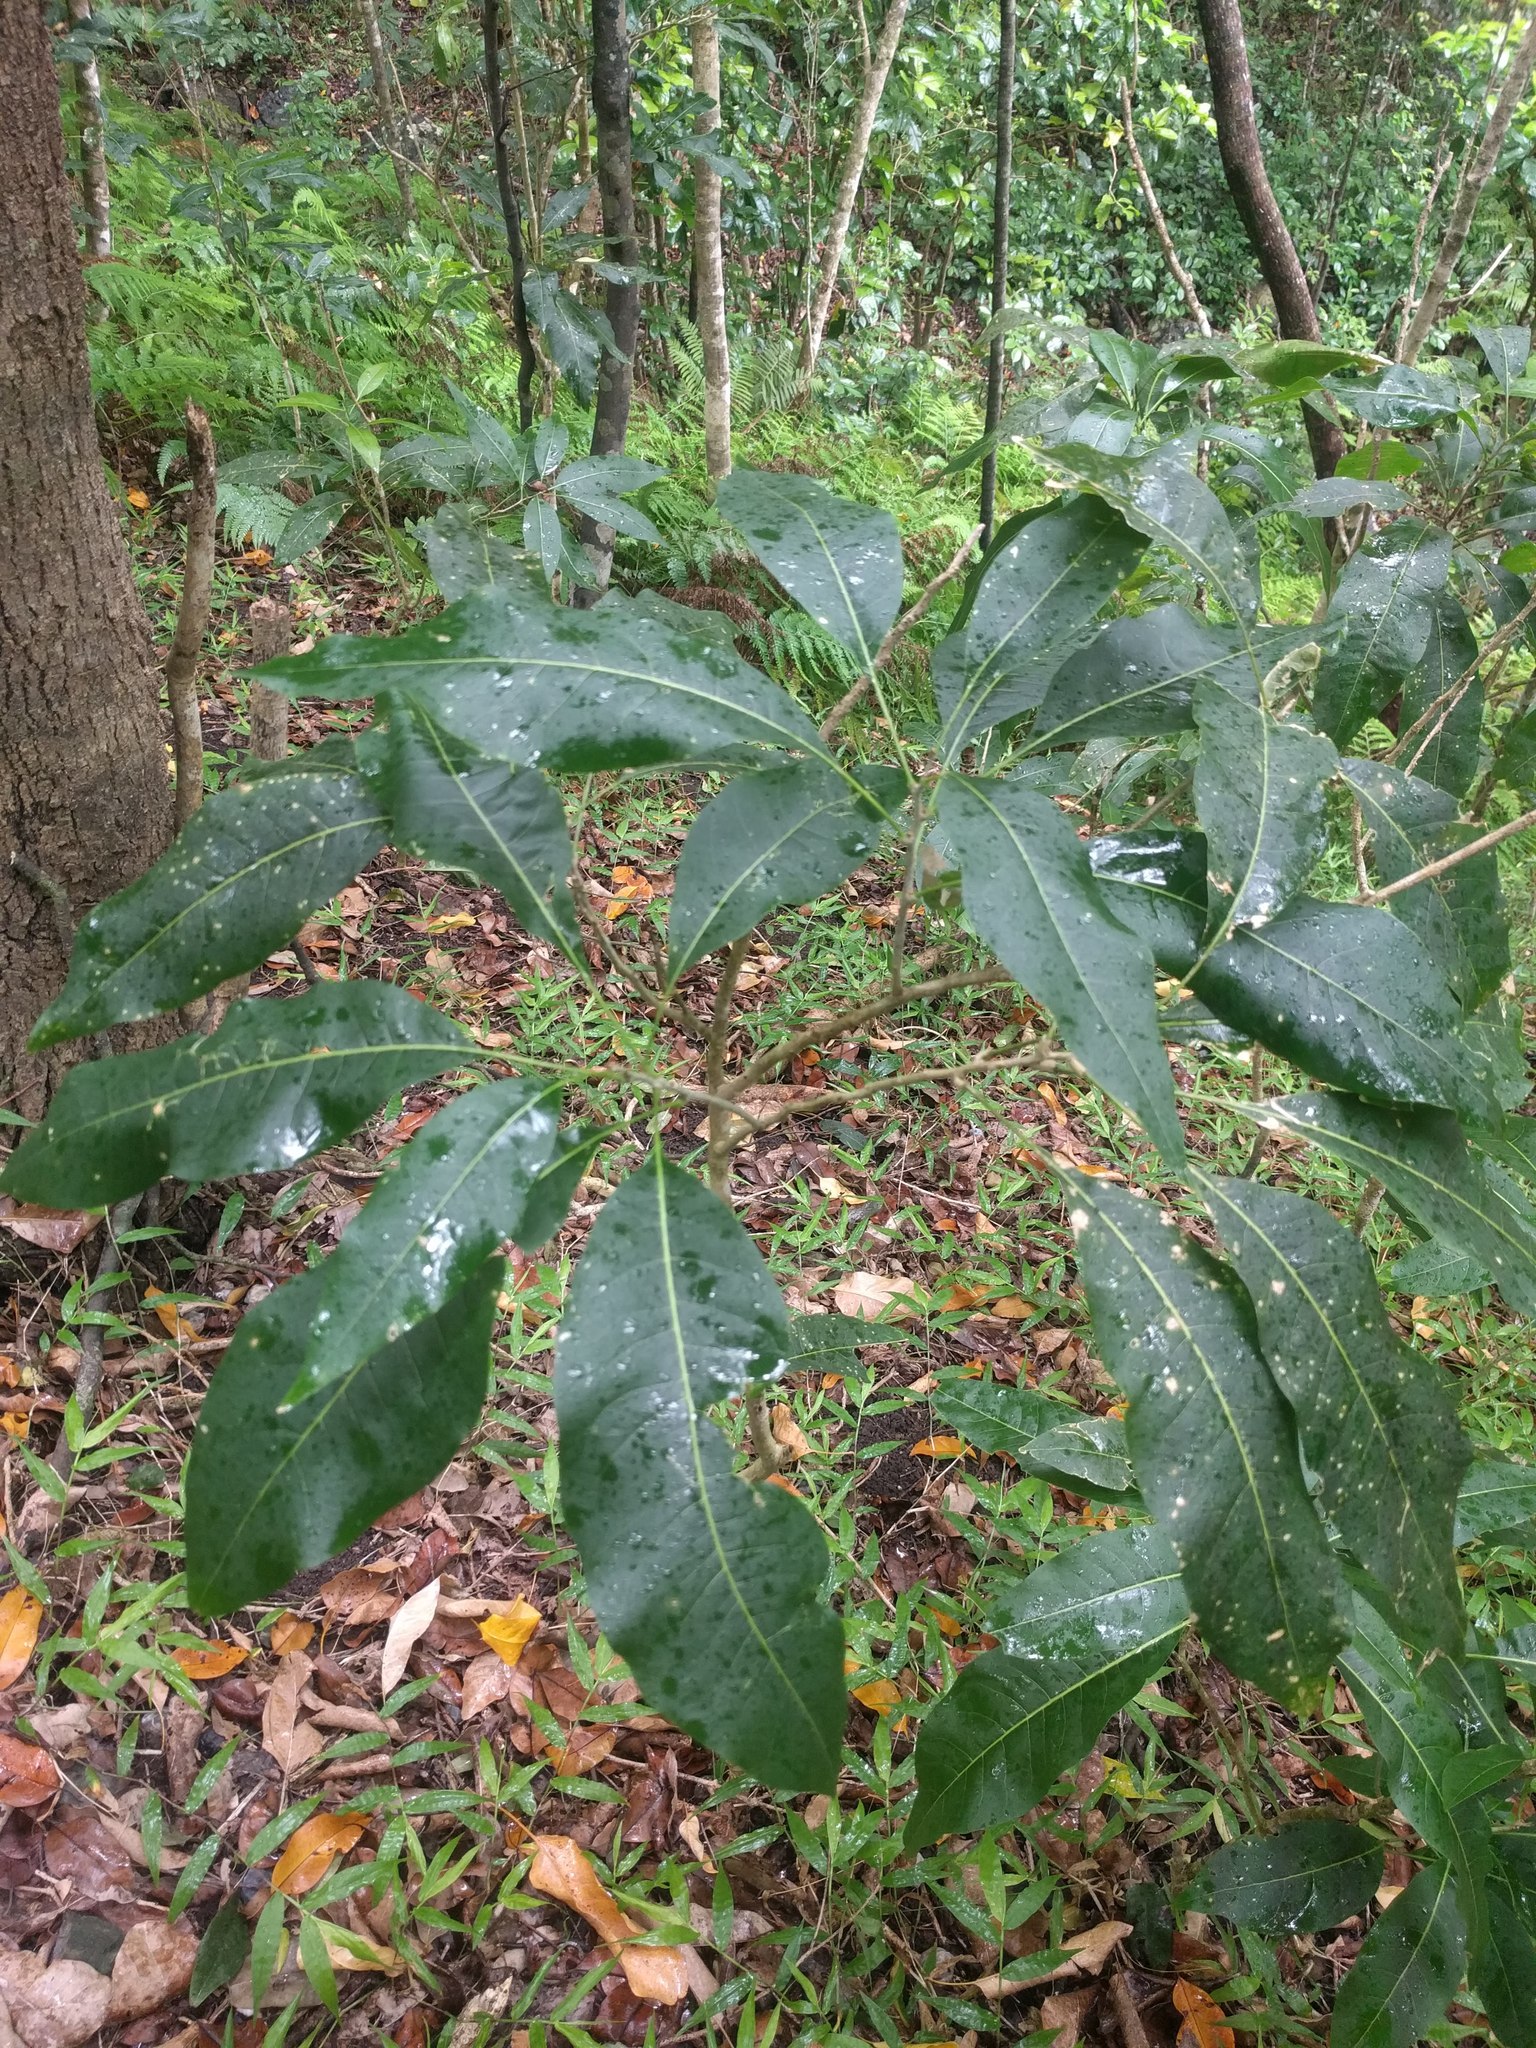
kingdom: Plantae
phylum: Tracheophyta
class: Magnoliopsida
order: Sapindales
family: Sapindaceae
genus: Sapindus
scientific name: Sapindus oahuensis
